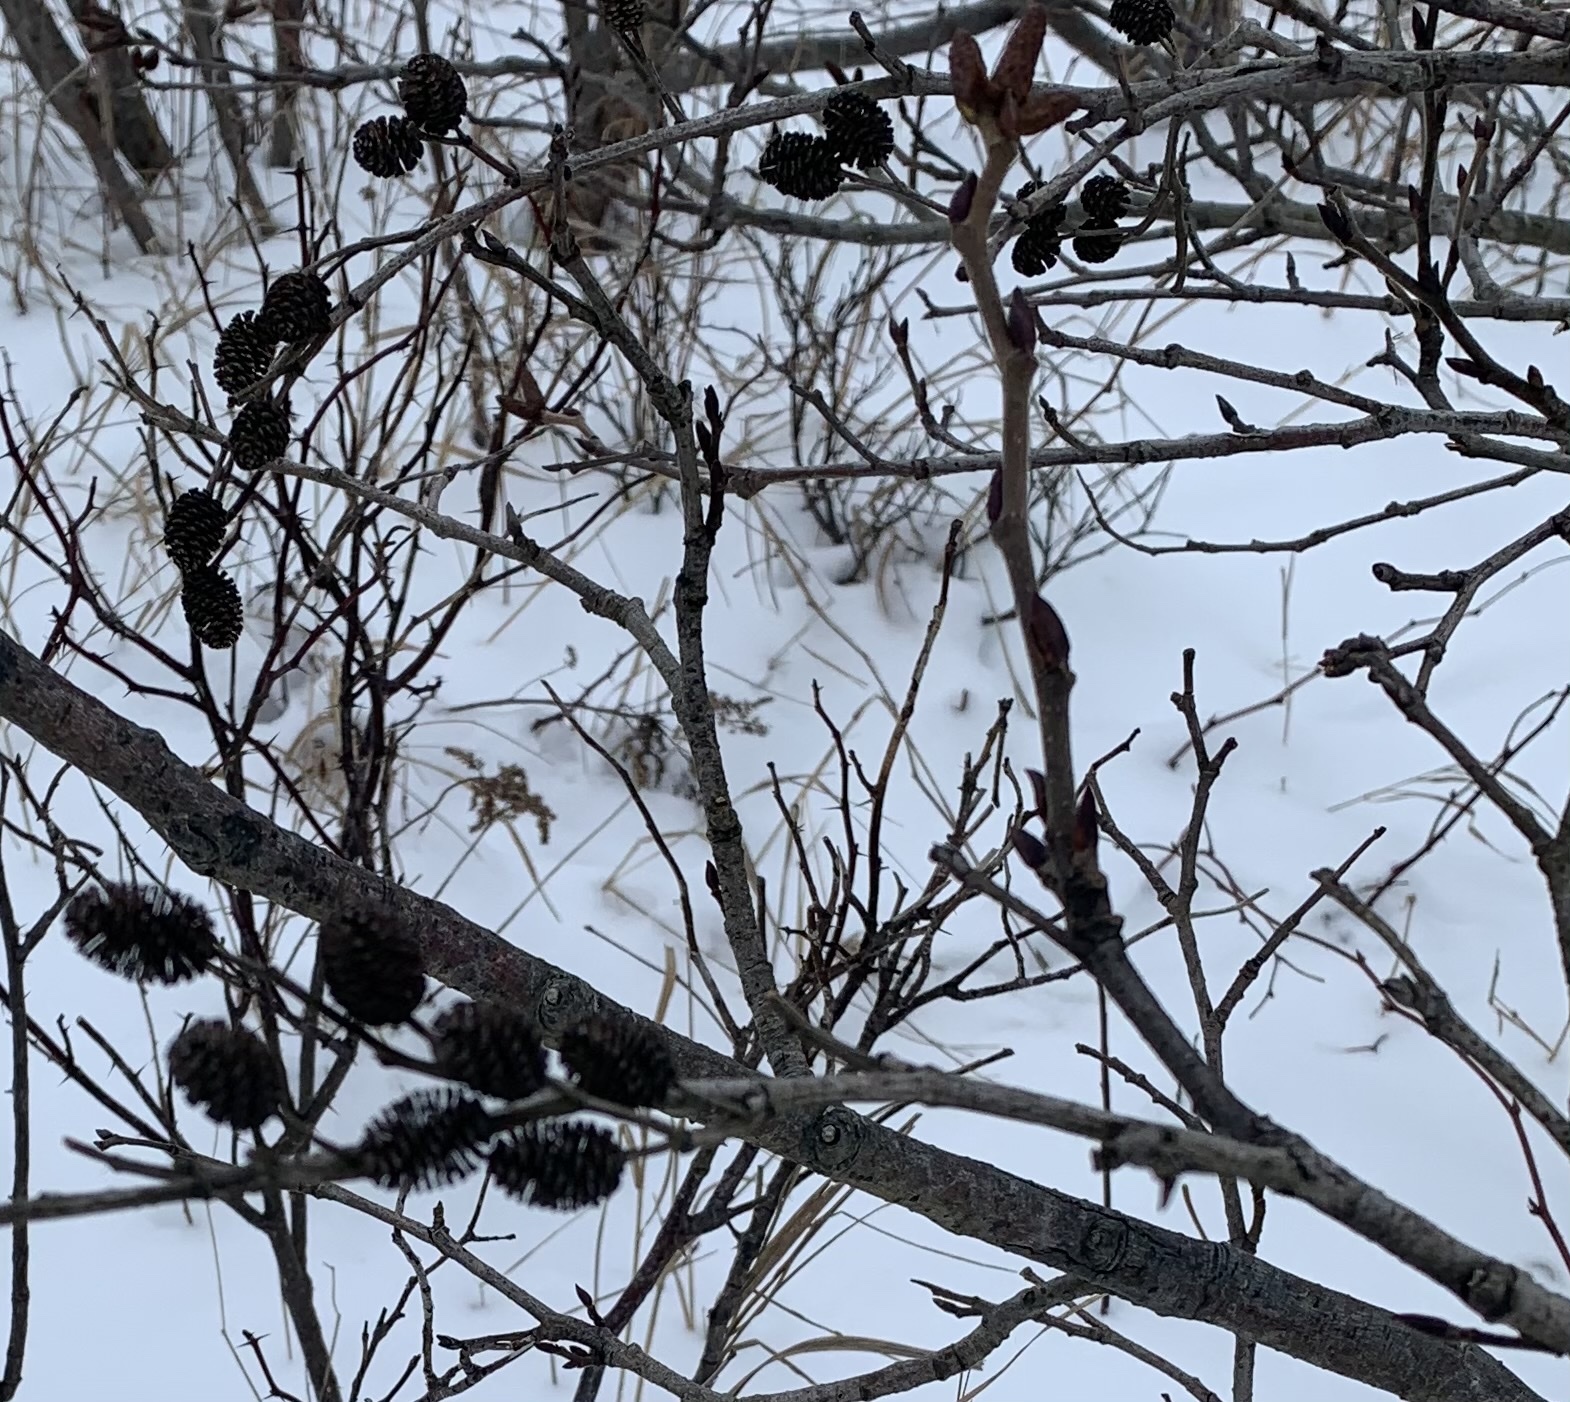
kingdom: Plantae
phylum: Tracheophyta
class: Magnoliopsida
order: Fagales
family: Betulaceae
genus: Alnus
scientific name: Alnus alnobetula
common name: Green alder
